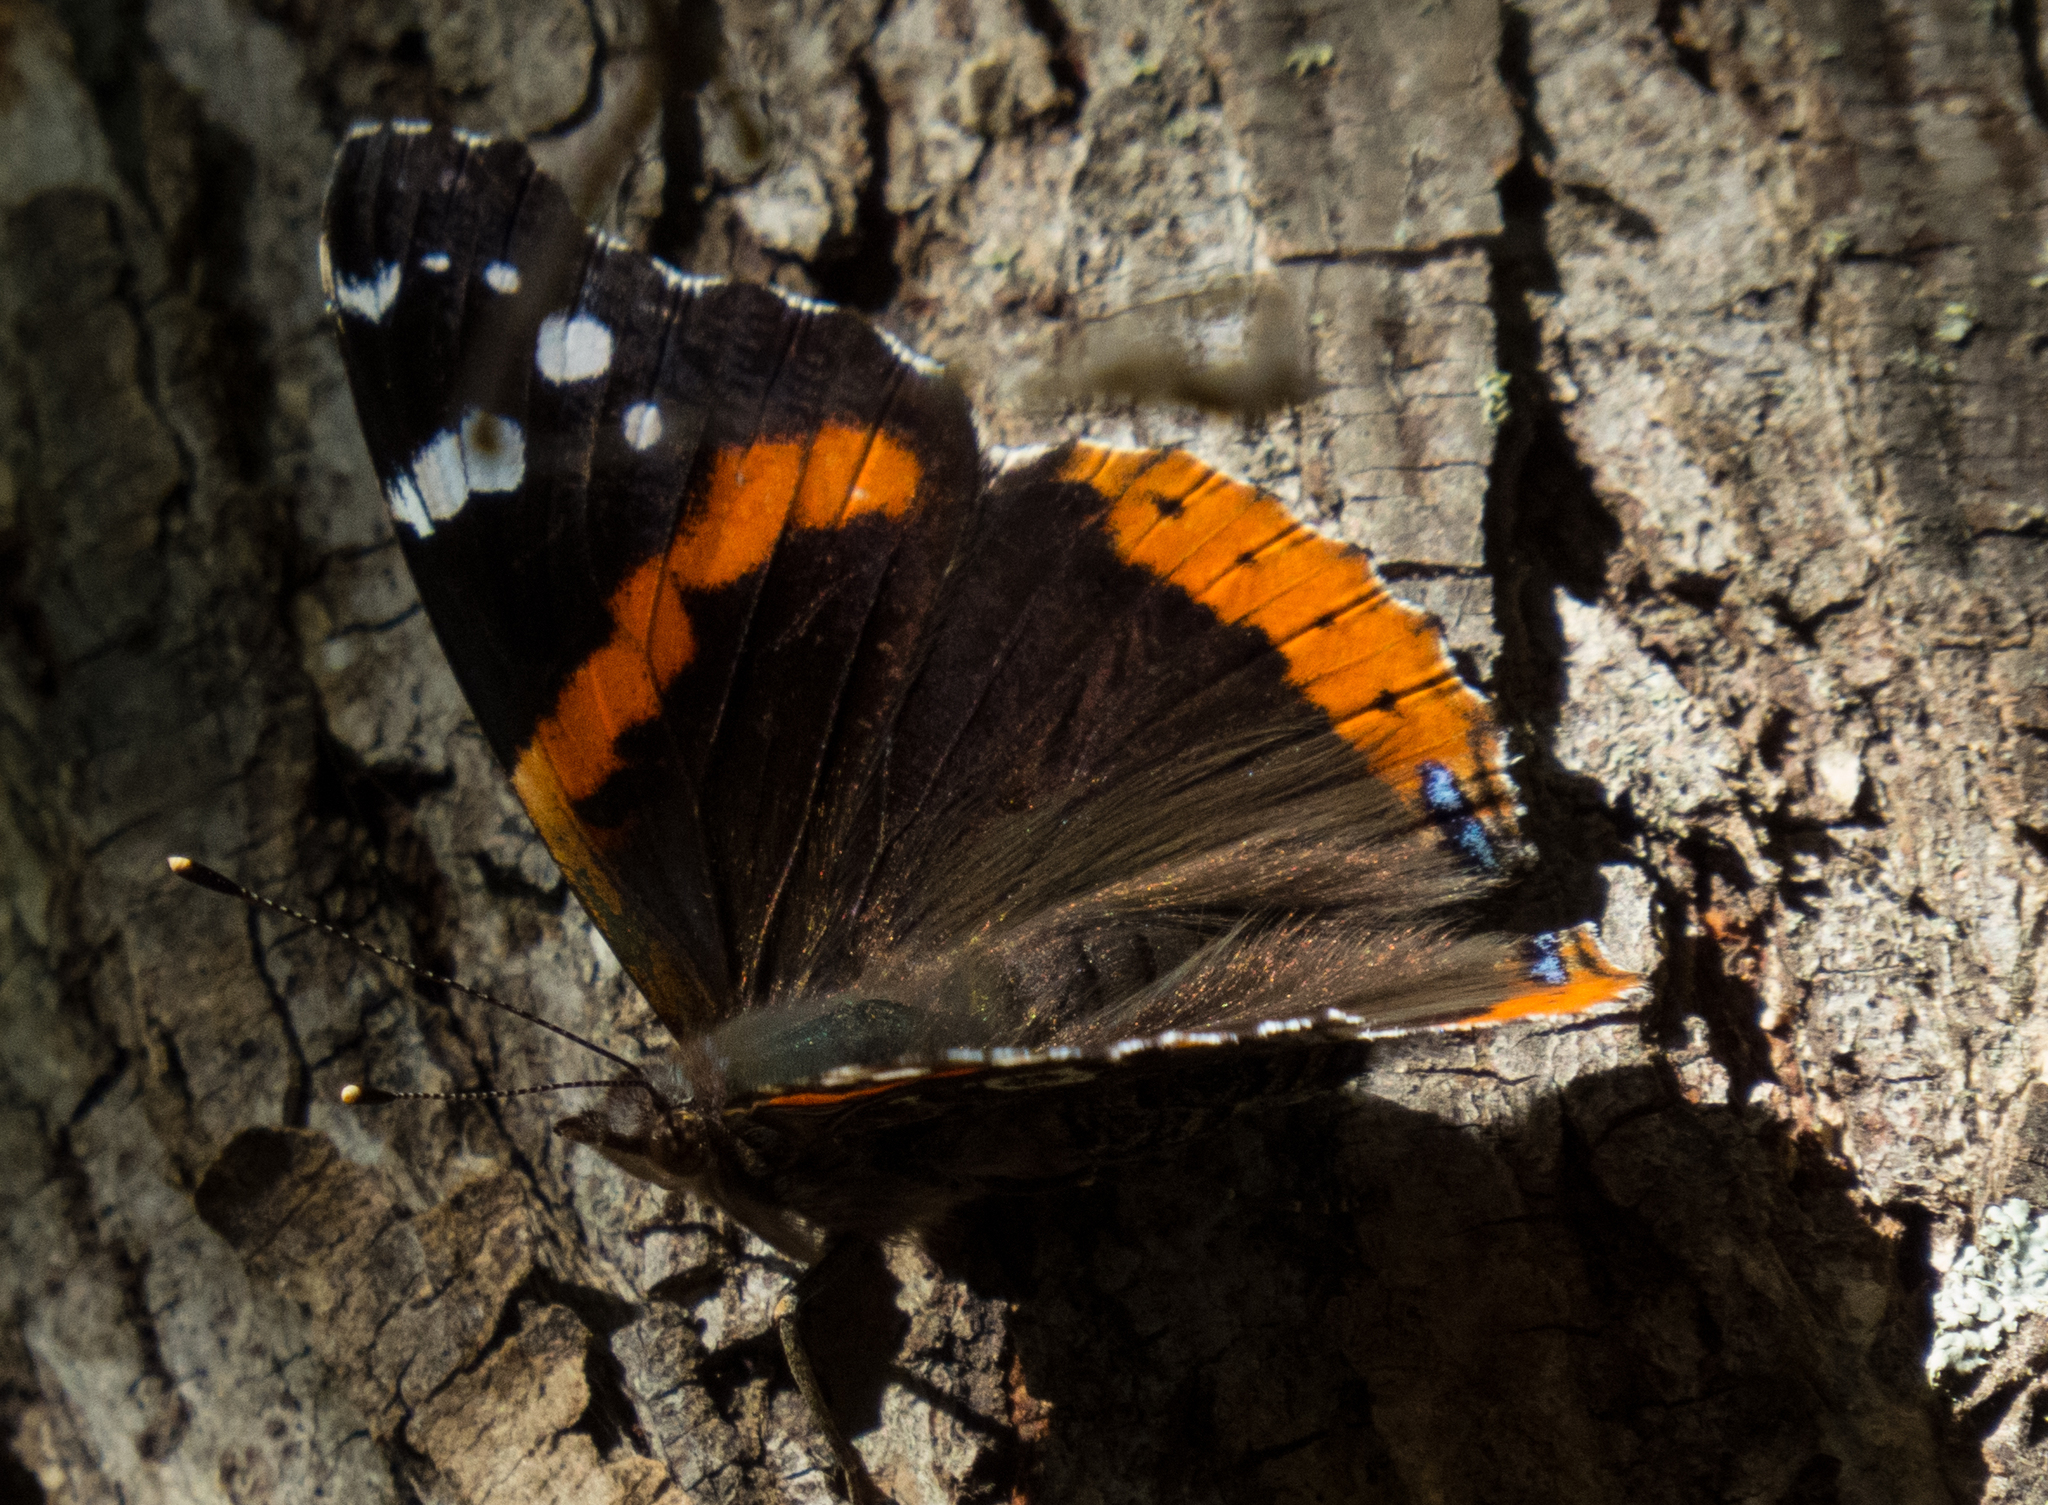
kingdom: Animalia
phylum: Arthropoda
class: Insecta
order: Lepidoptera
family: Nymphalidae
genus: Vanessa
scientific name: Vanessa atalanta
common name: Red admiral
